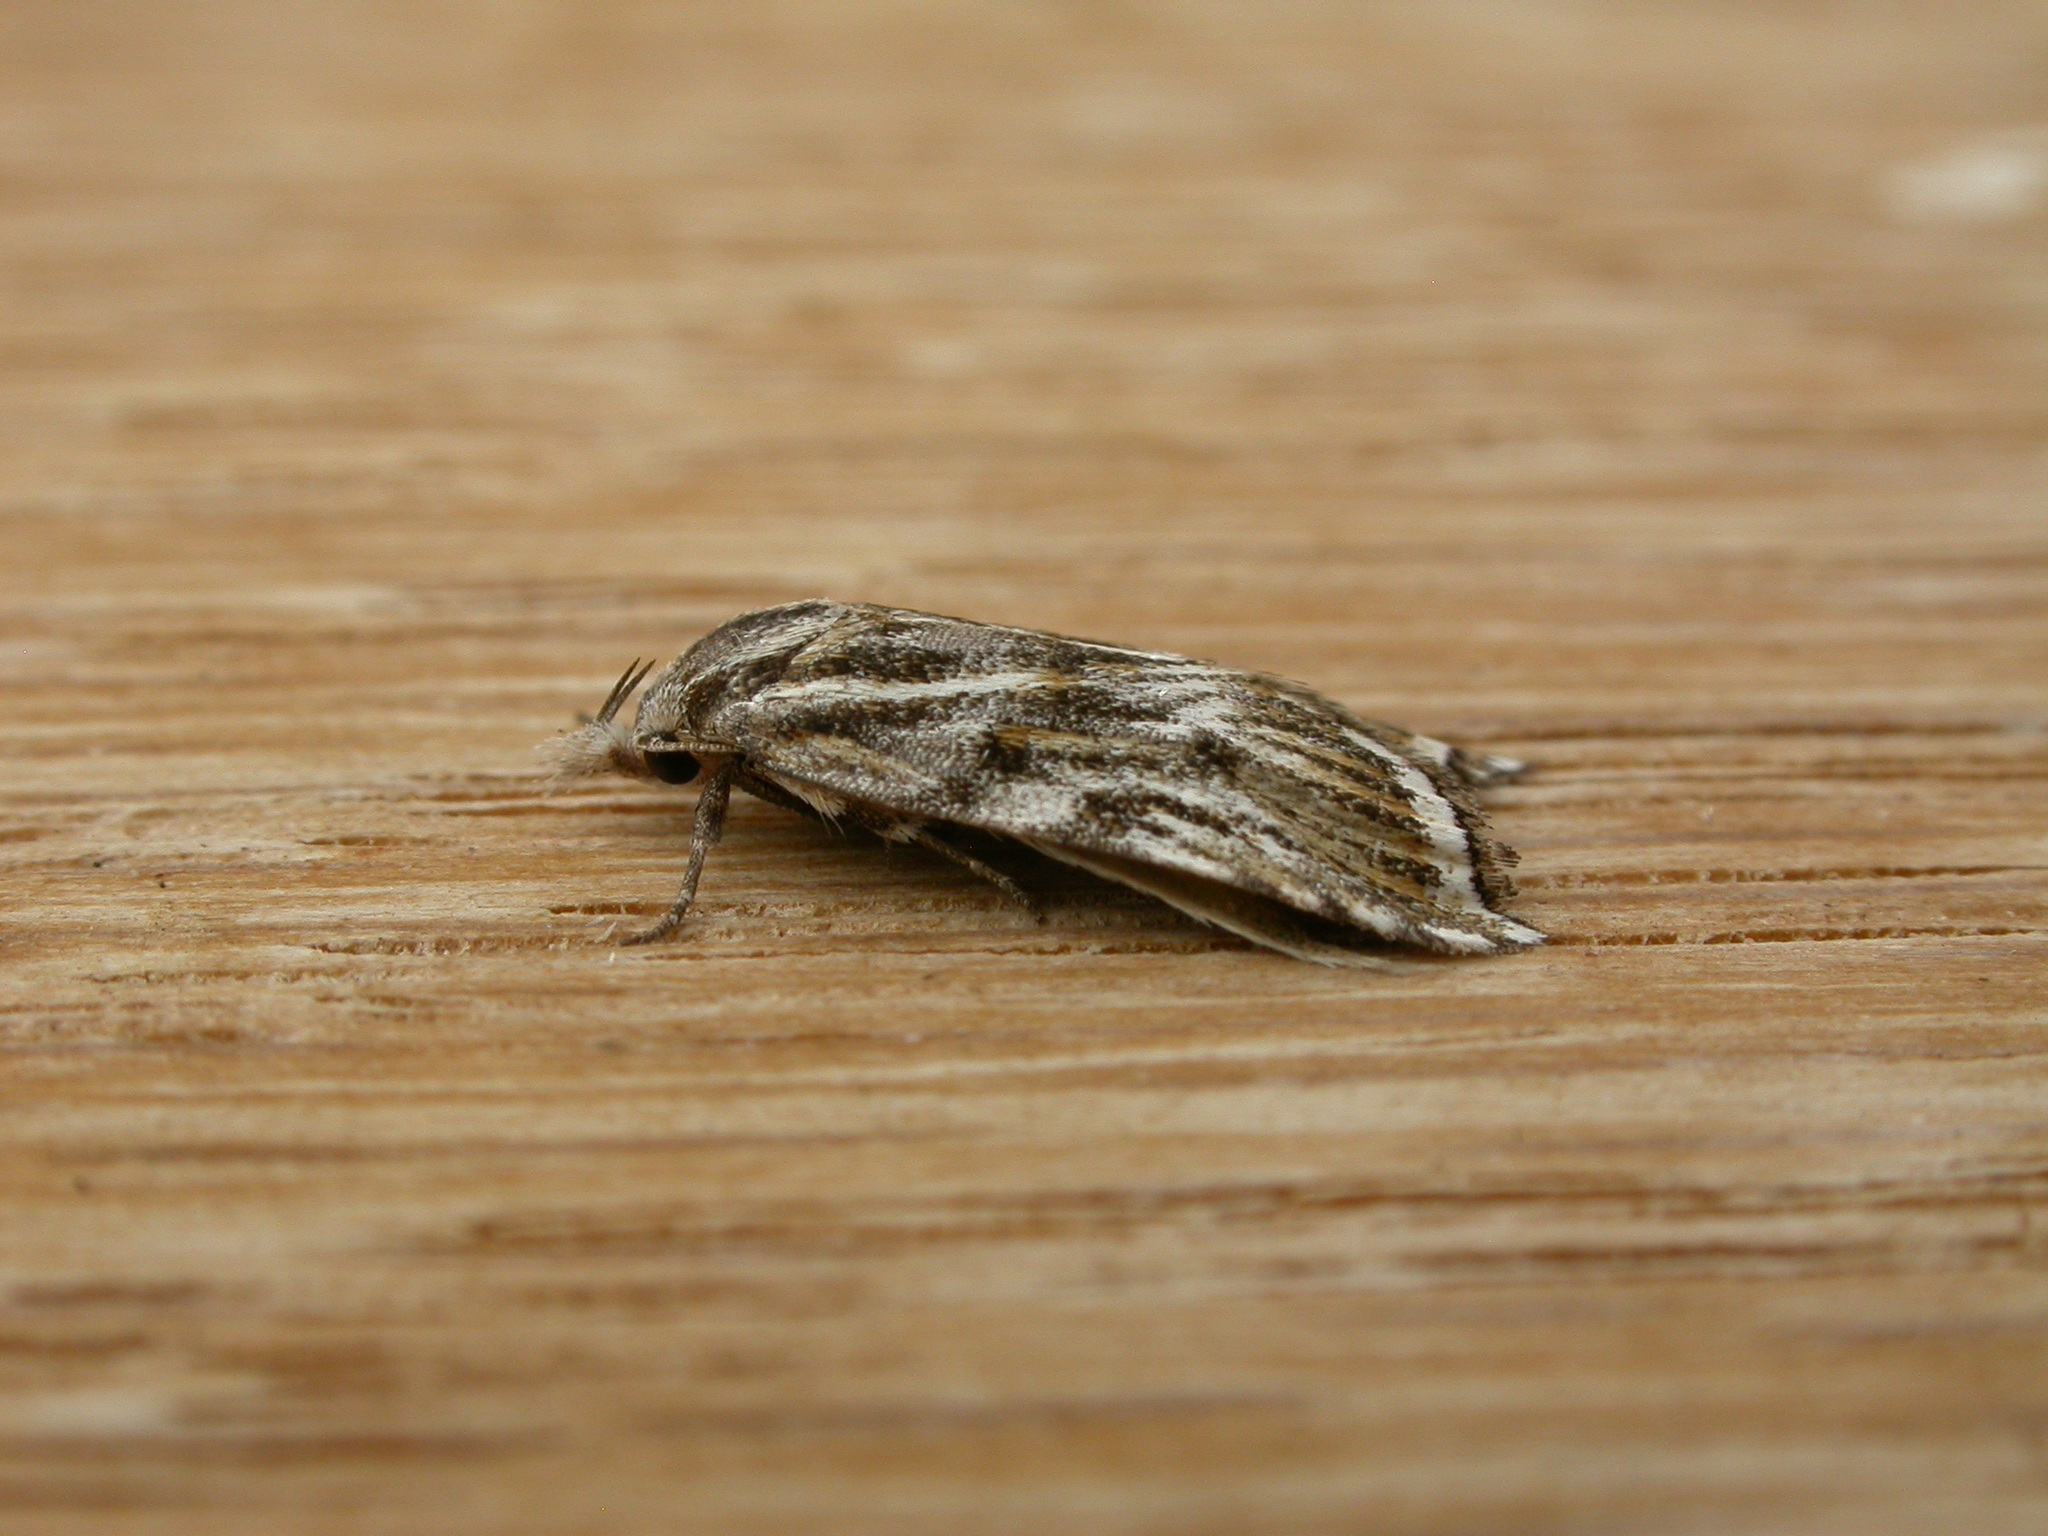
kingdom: Animalia
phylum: Arthropoda
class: Insecta
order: Lepidoptera
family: Oecophoridae
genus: Tortricopsis
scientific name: Tortricopsis aulacois
